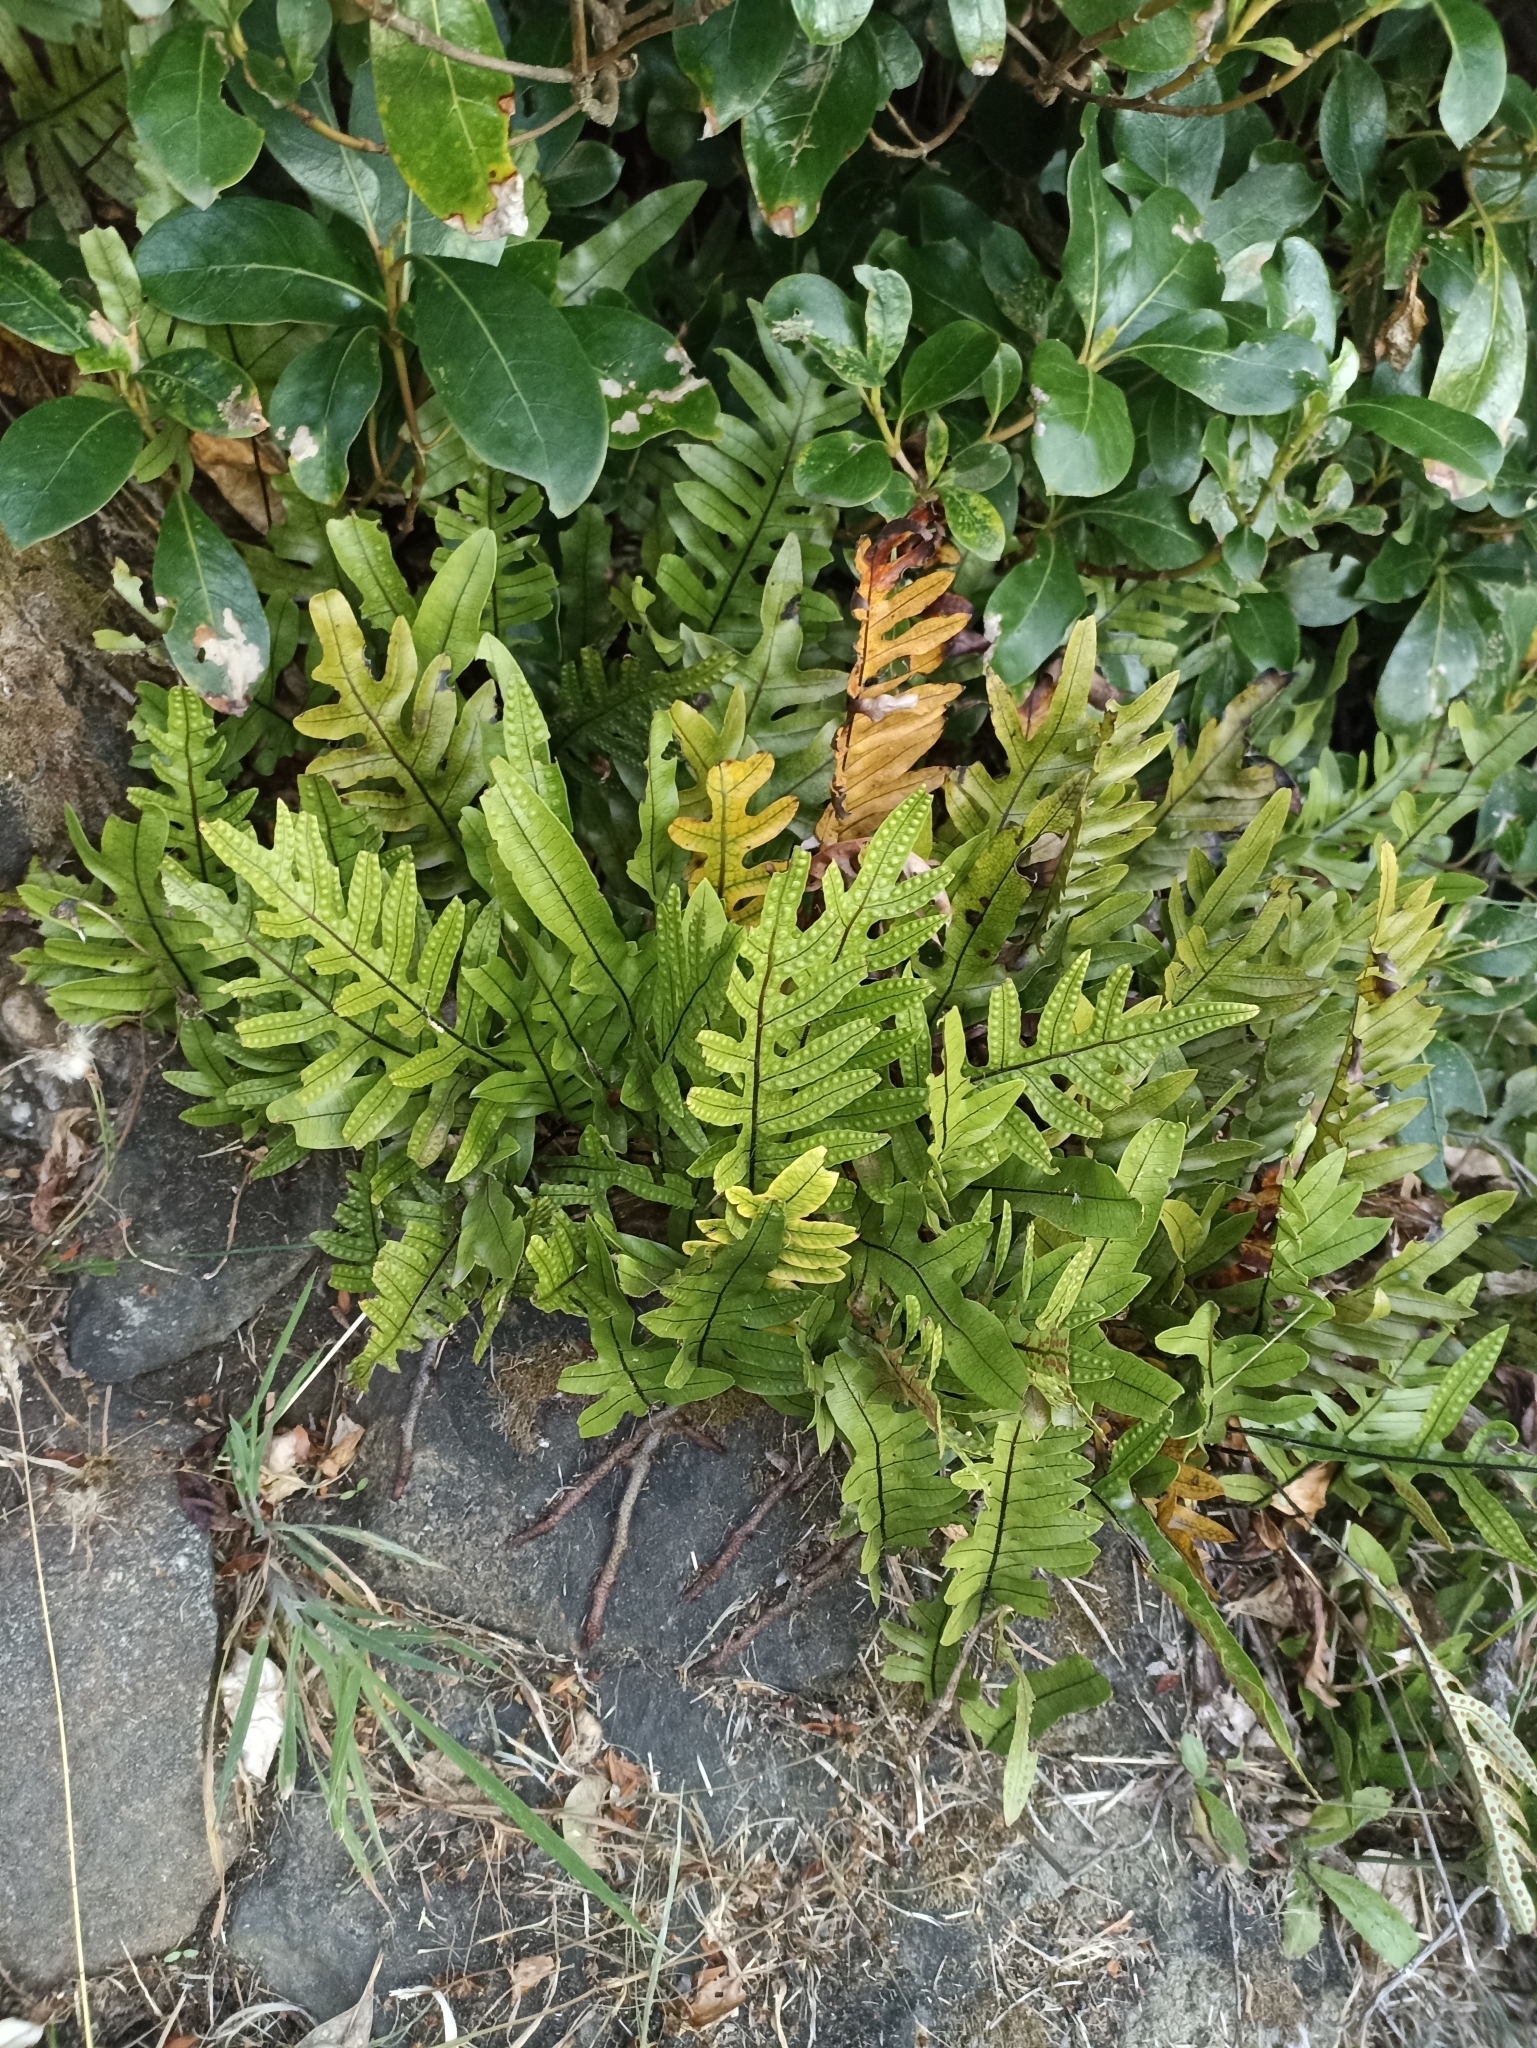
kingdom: Plantae
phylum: Tracheophyta
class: Polypodiopsida
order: Polypodiales
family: Polypodiaceae
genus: Lecanopteris
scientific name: Lecanopteris pustulata
